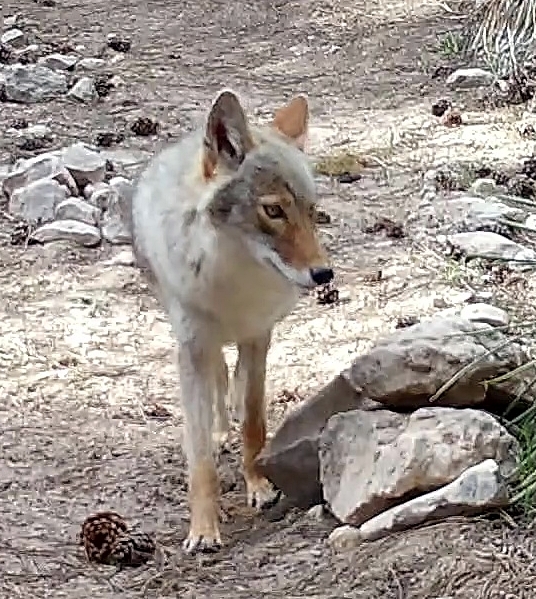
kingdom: Animalia
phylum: Chordata
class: Mammalia
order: Carnivora
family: Canidae
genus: Canis
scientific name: Canis latrans
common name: Coyote
